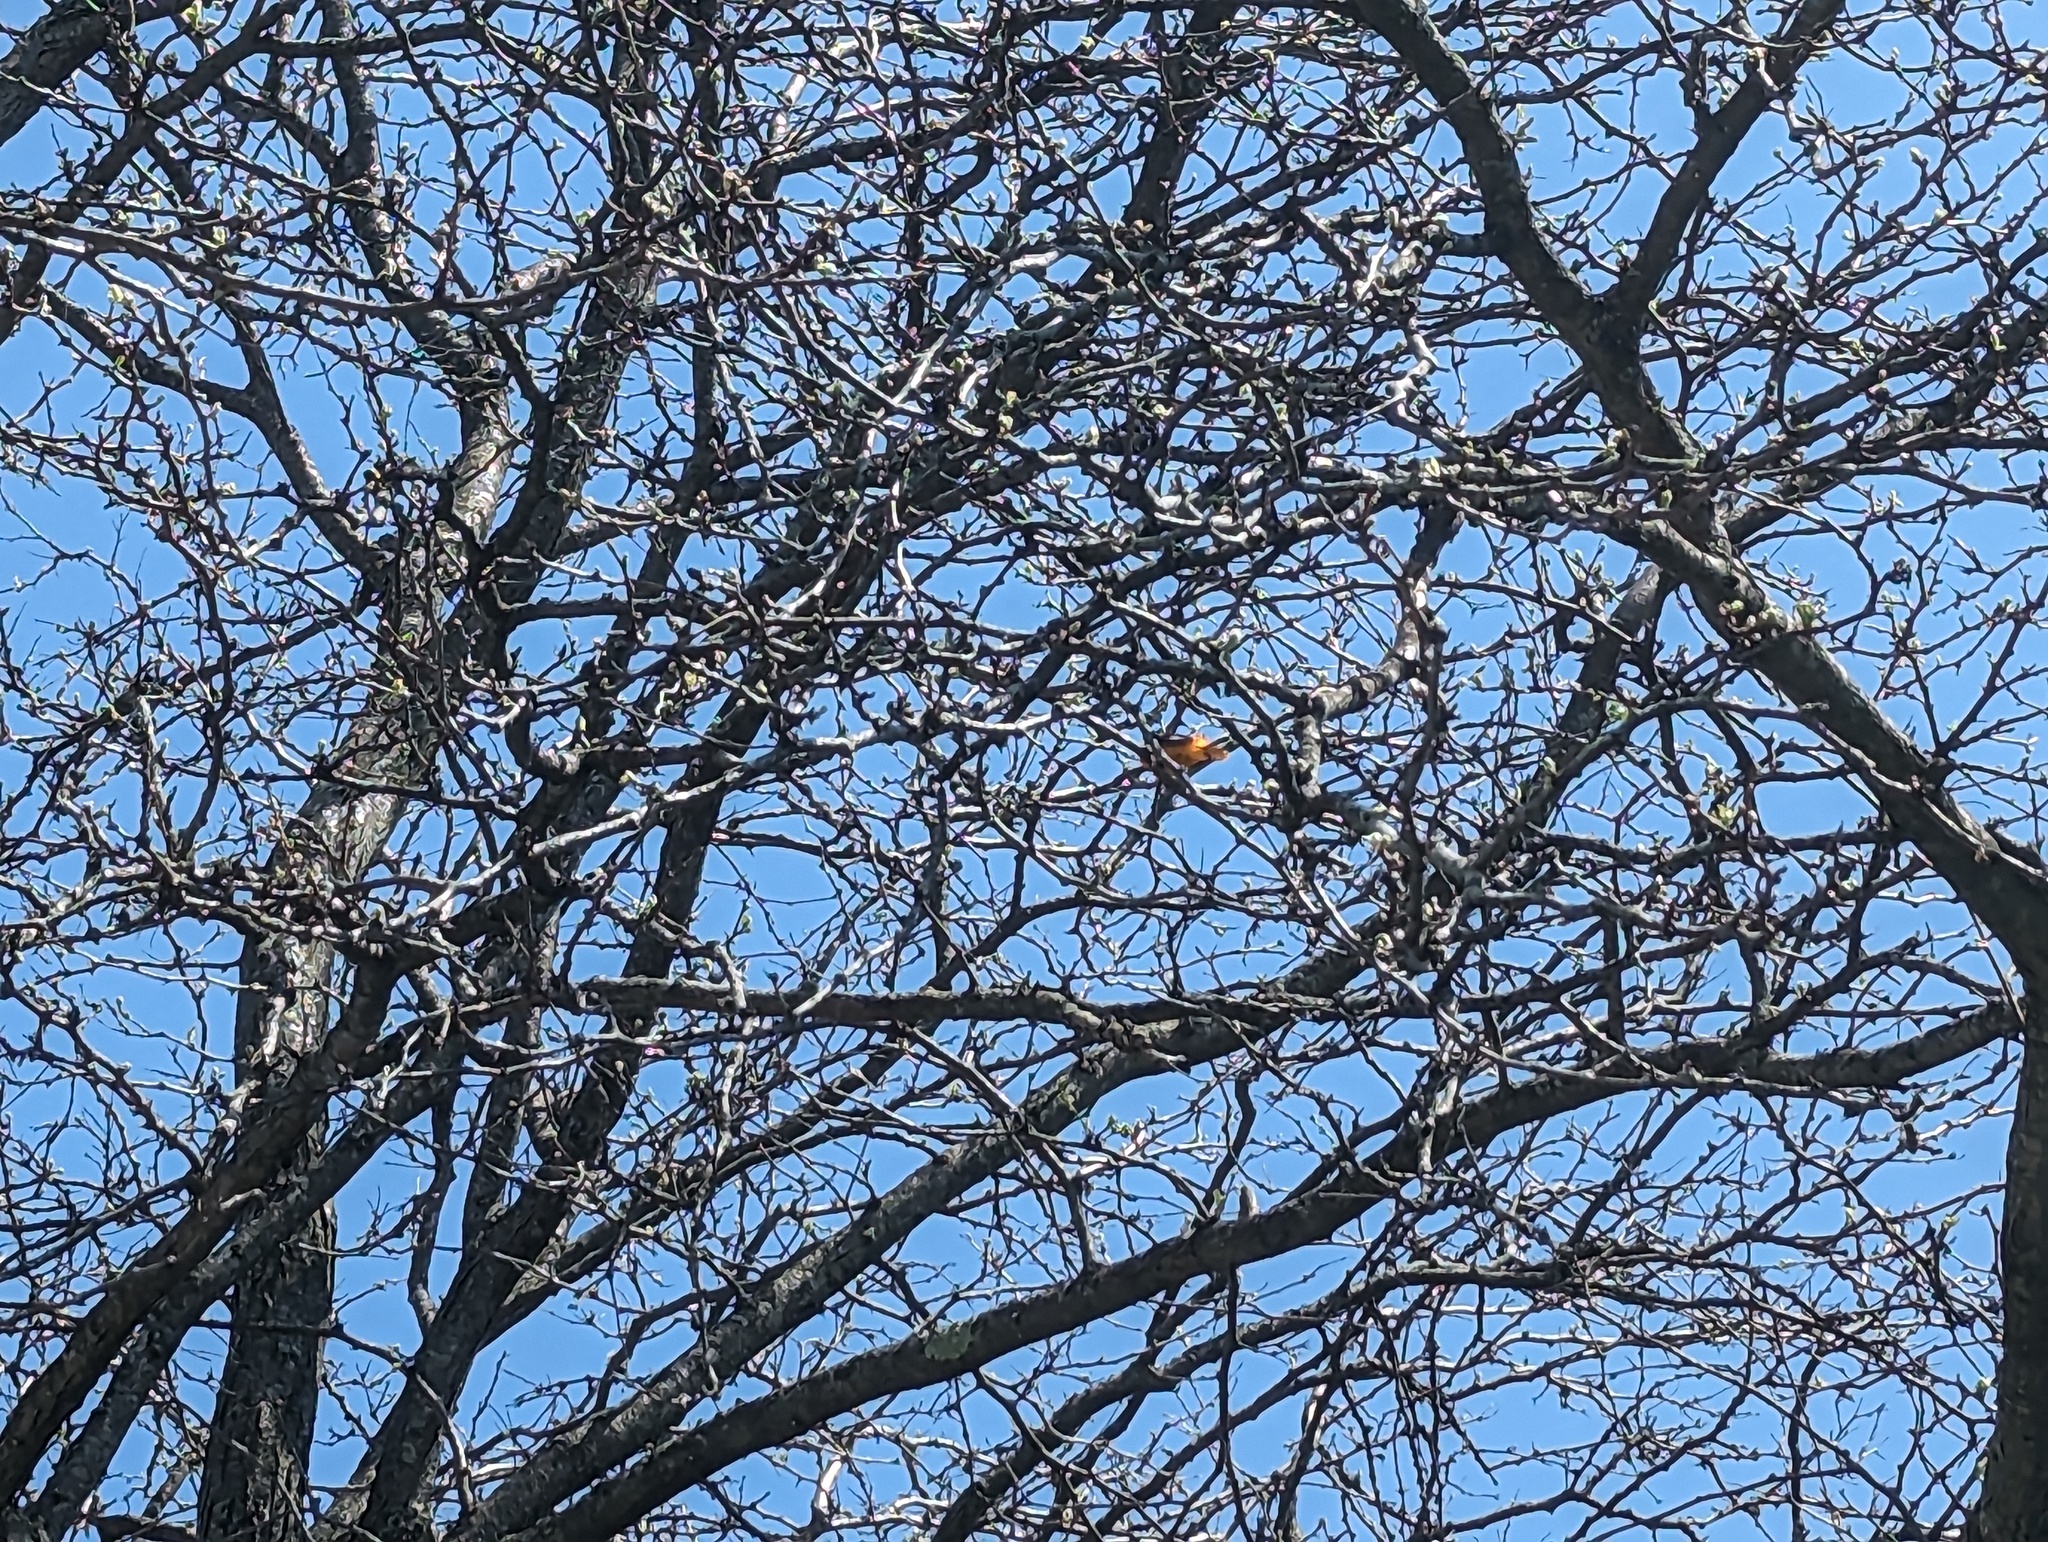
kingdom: Animalia
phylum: Chordata
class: Aves
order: Passeriformes
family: Icteridae
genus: Icterus
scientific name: Icterus galbula
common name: Baltimore oriole
